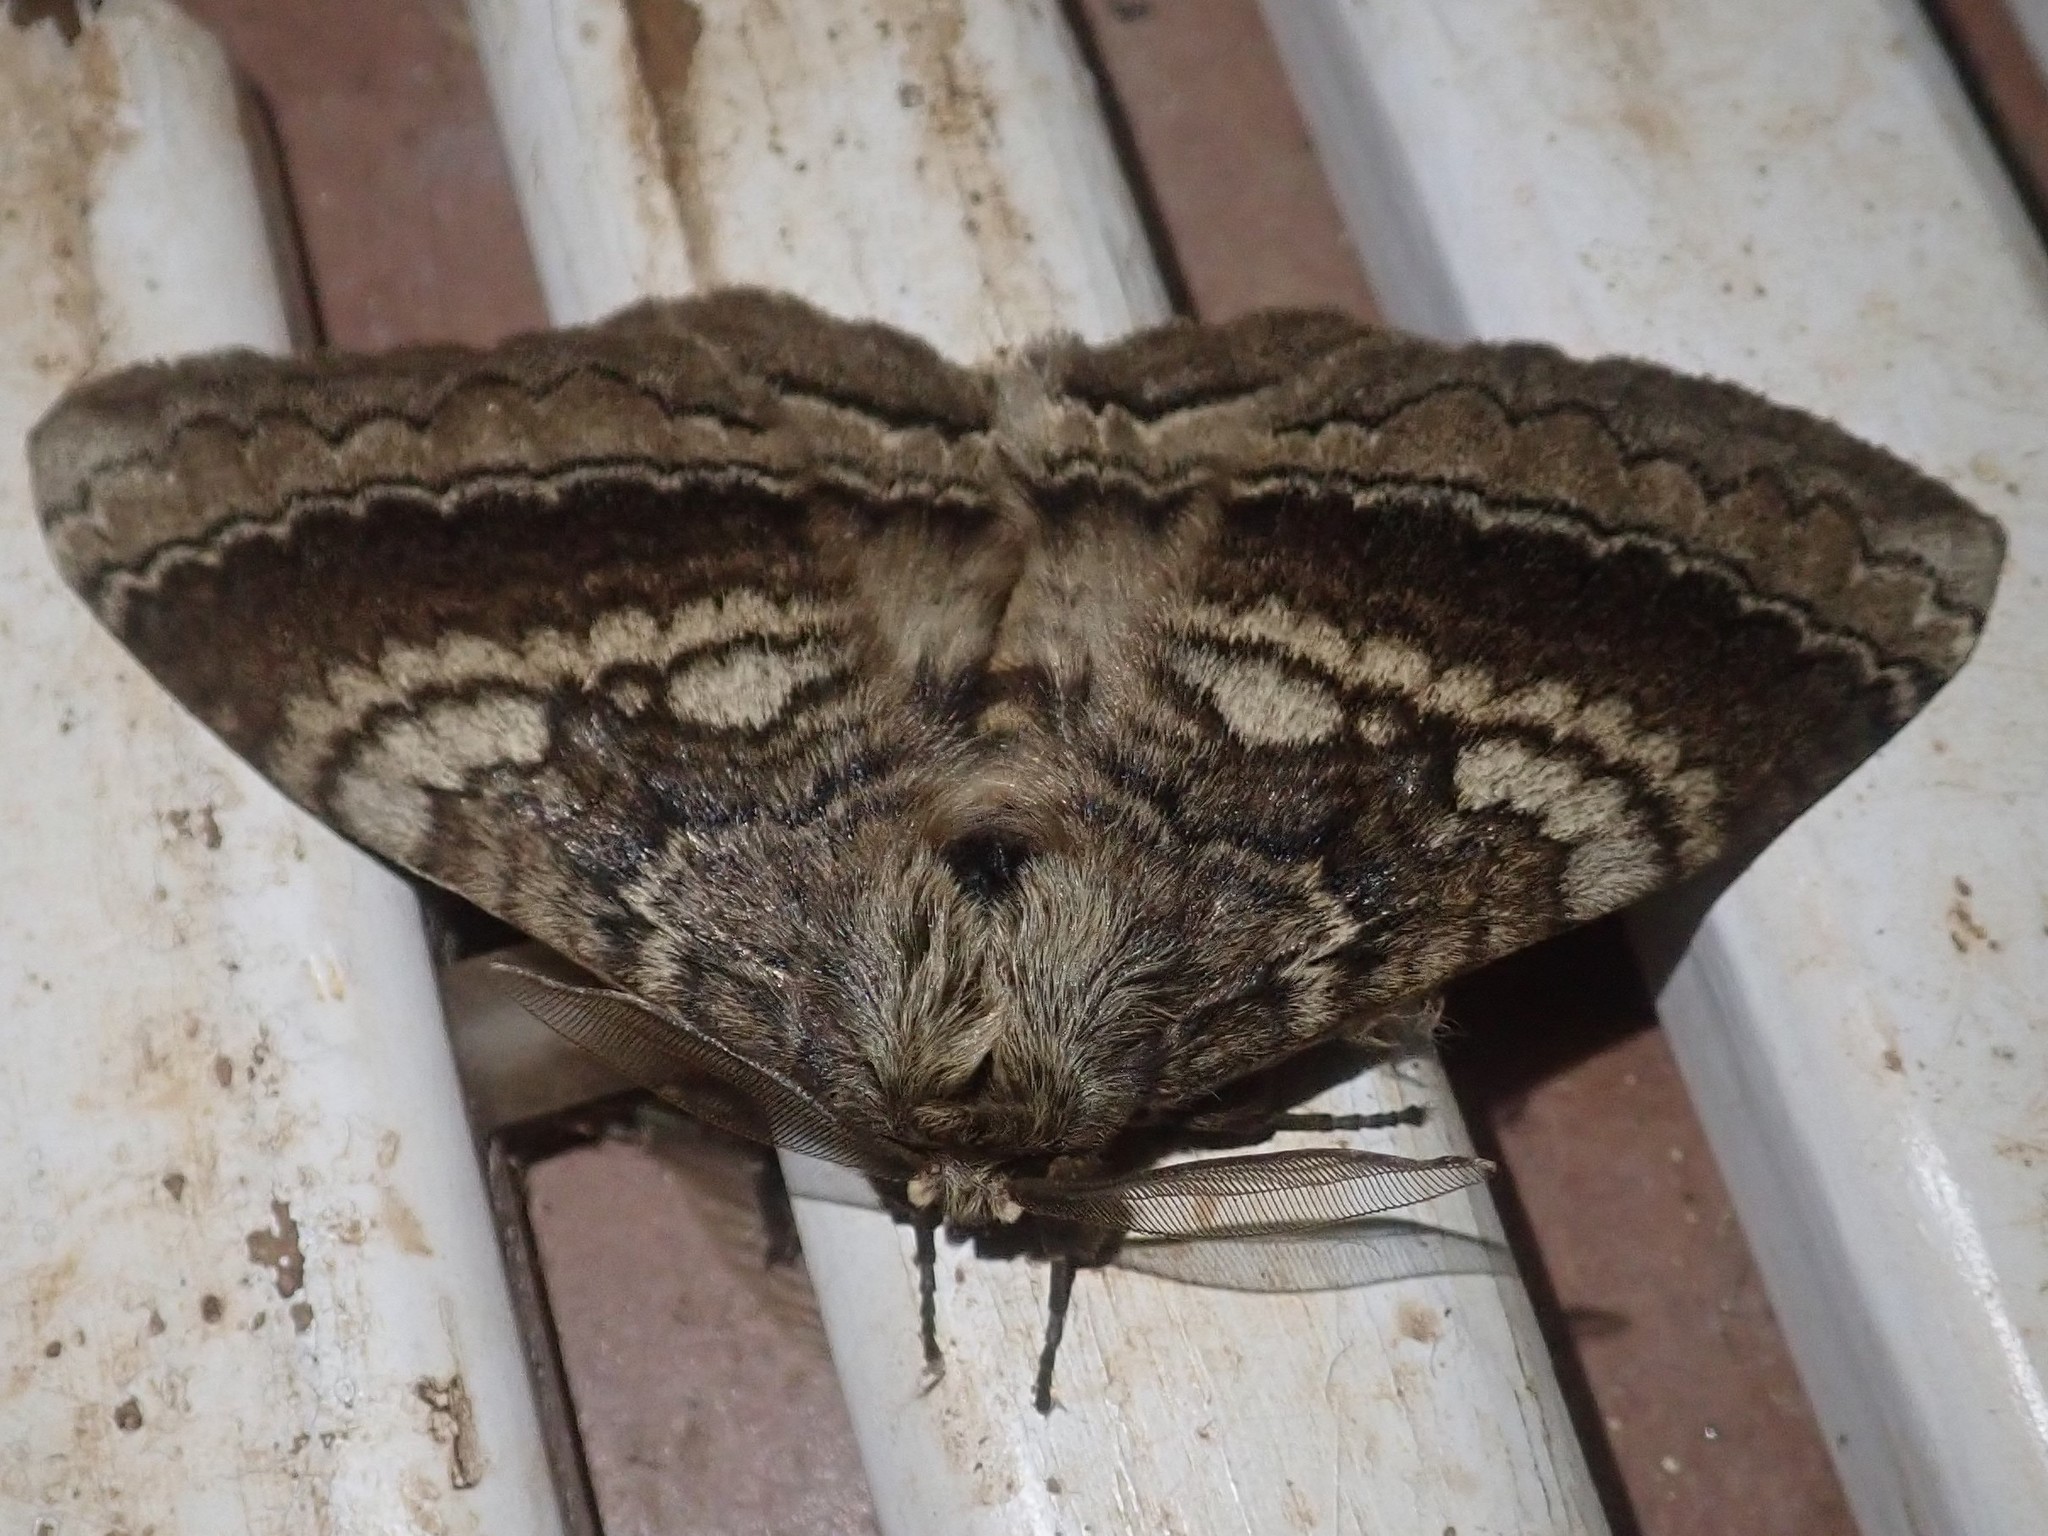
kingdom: Animalia
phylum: Arthropoda
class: Insecta
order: Lepidoptera
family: Eupterotidae
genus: Striphnopteryx
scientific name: Striphnopteryx edulis
